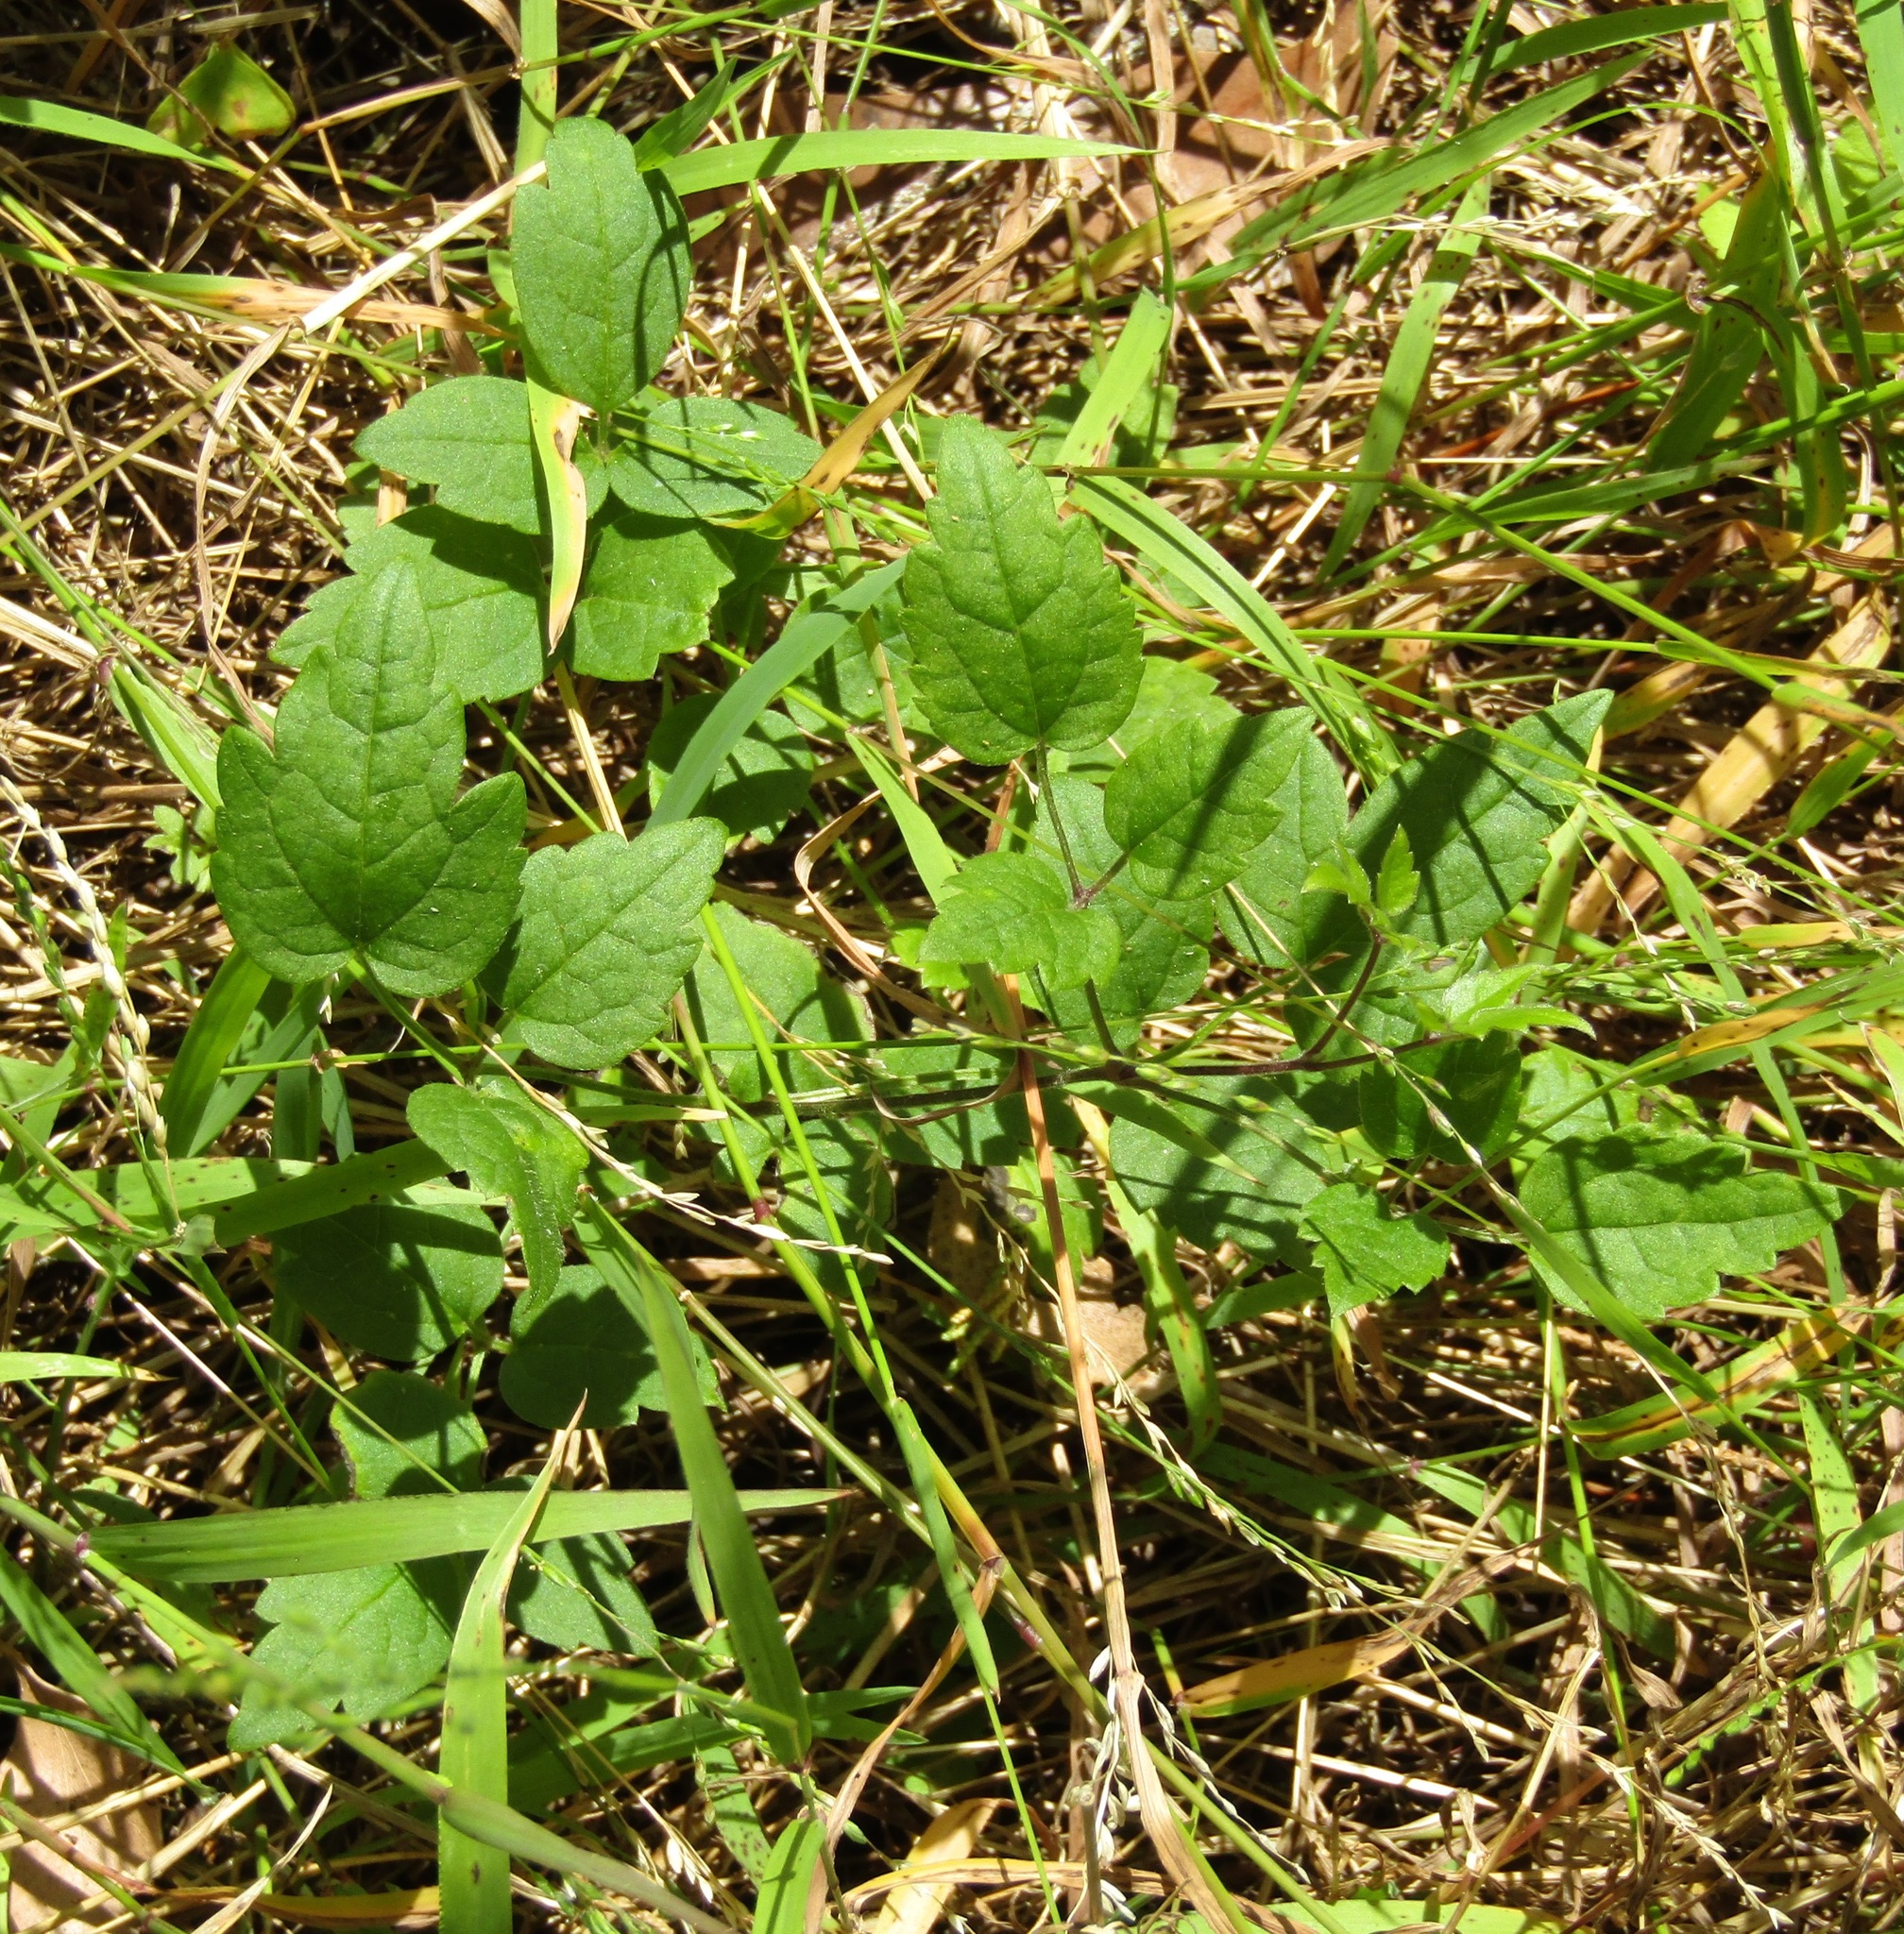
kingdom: Plantae
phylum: Tracheophyta
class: Magnoliopsida
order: Ranunculales
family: Ranunculaceae
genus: Clematis
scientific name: Clematis vitalba
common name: Evergreen clematis
